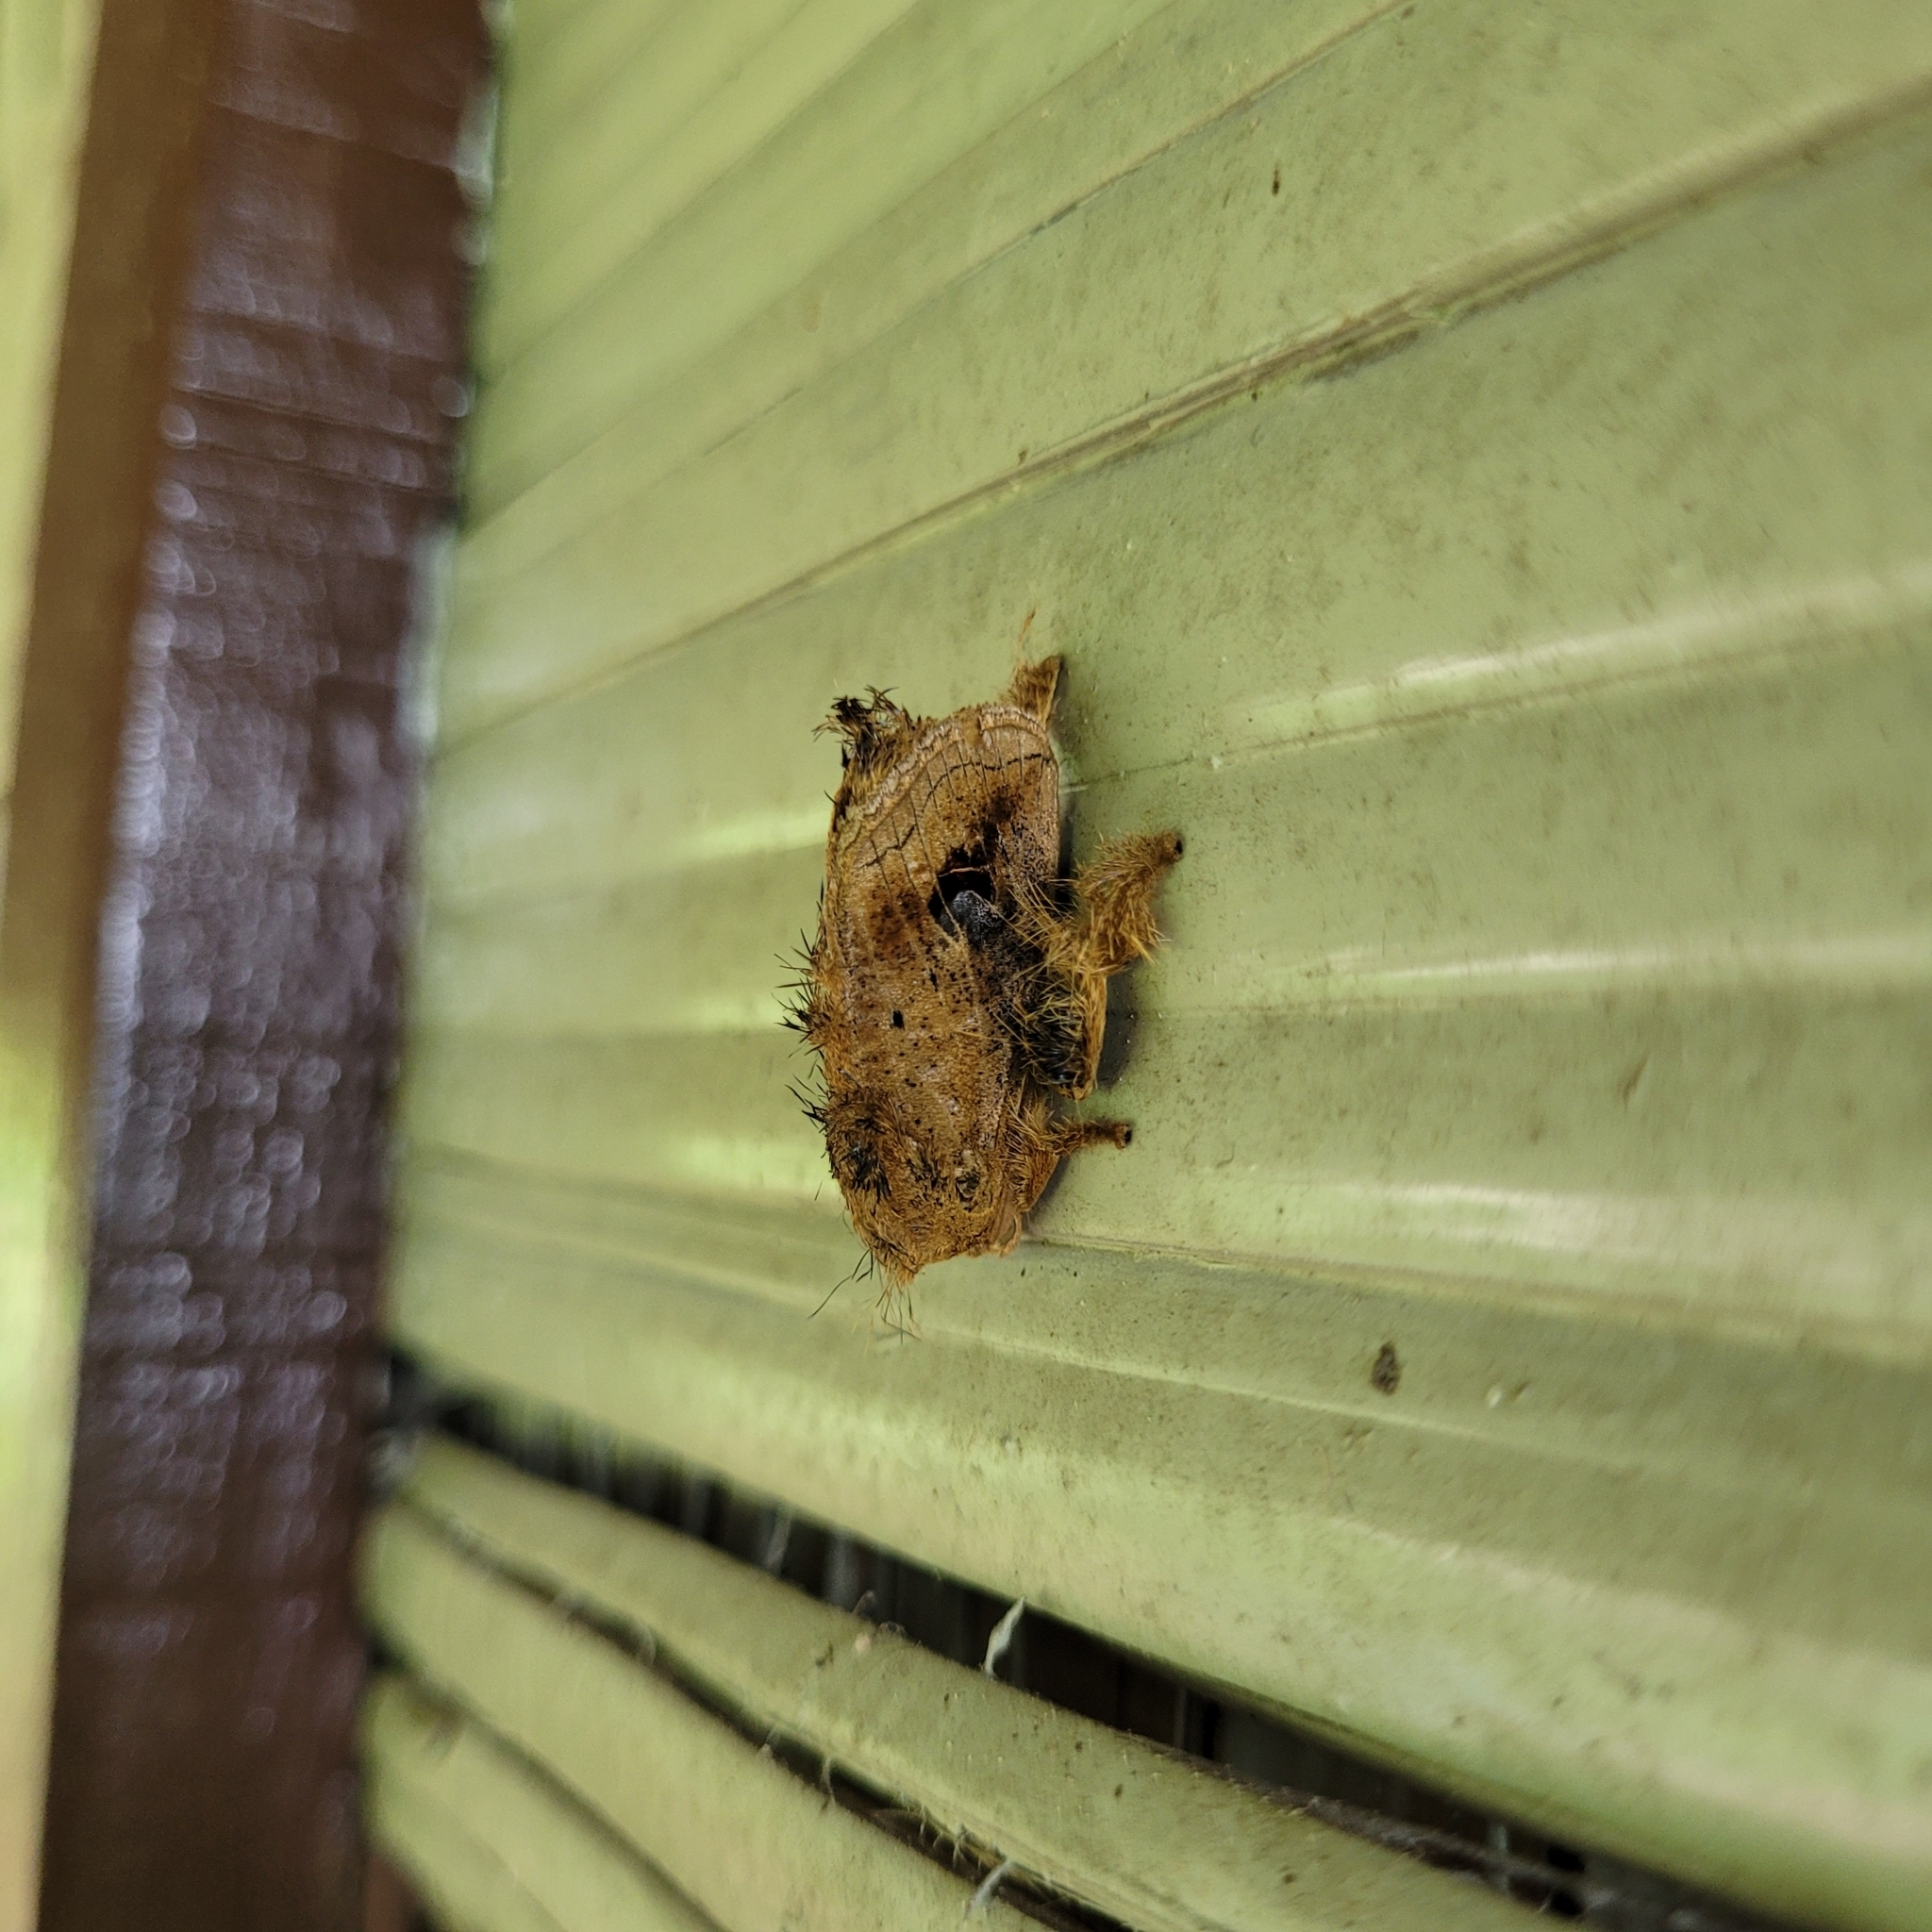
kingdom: Animalia
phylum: Arthropoda
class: Insecta
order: Lepidoptera
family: Limacodidae
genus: Squamosa
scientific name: Squamosa ocellata
